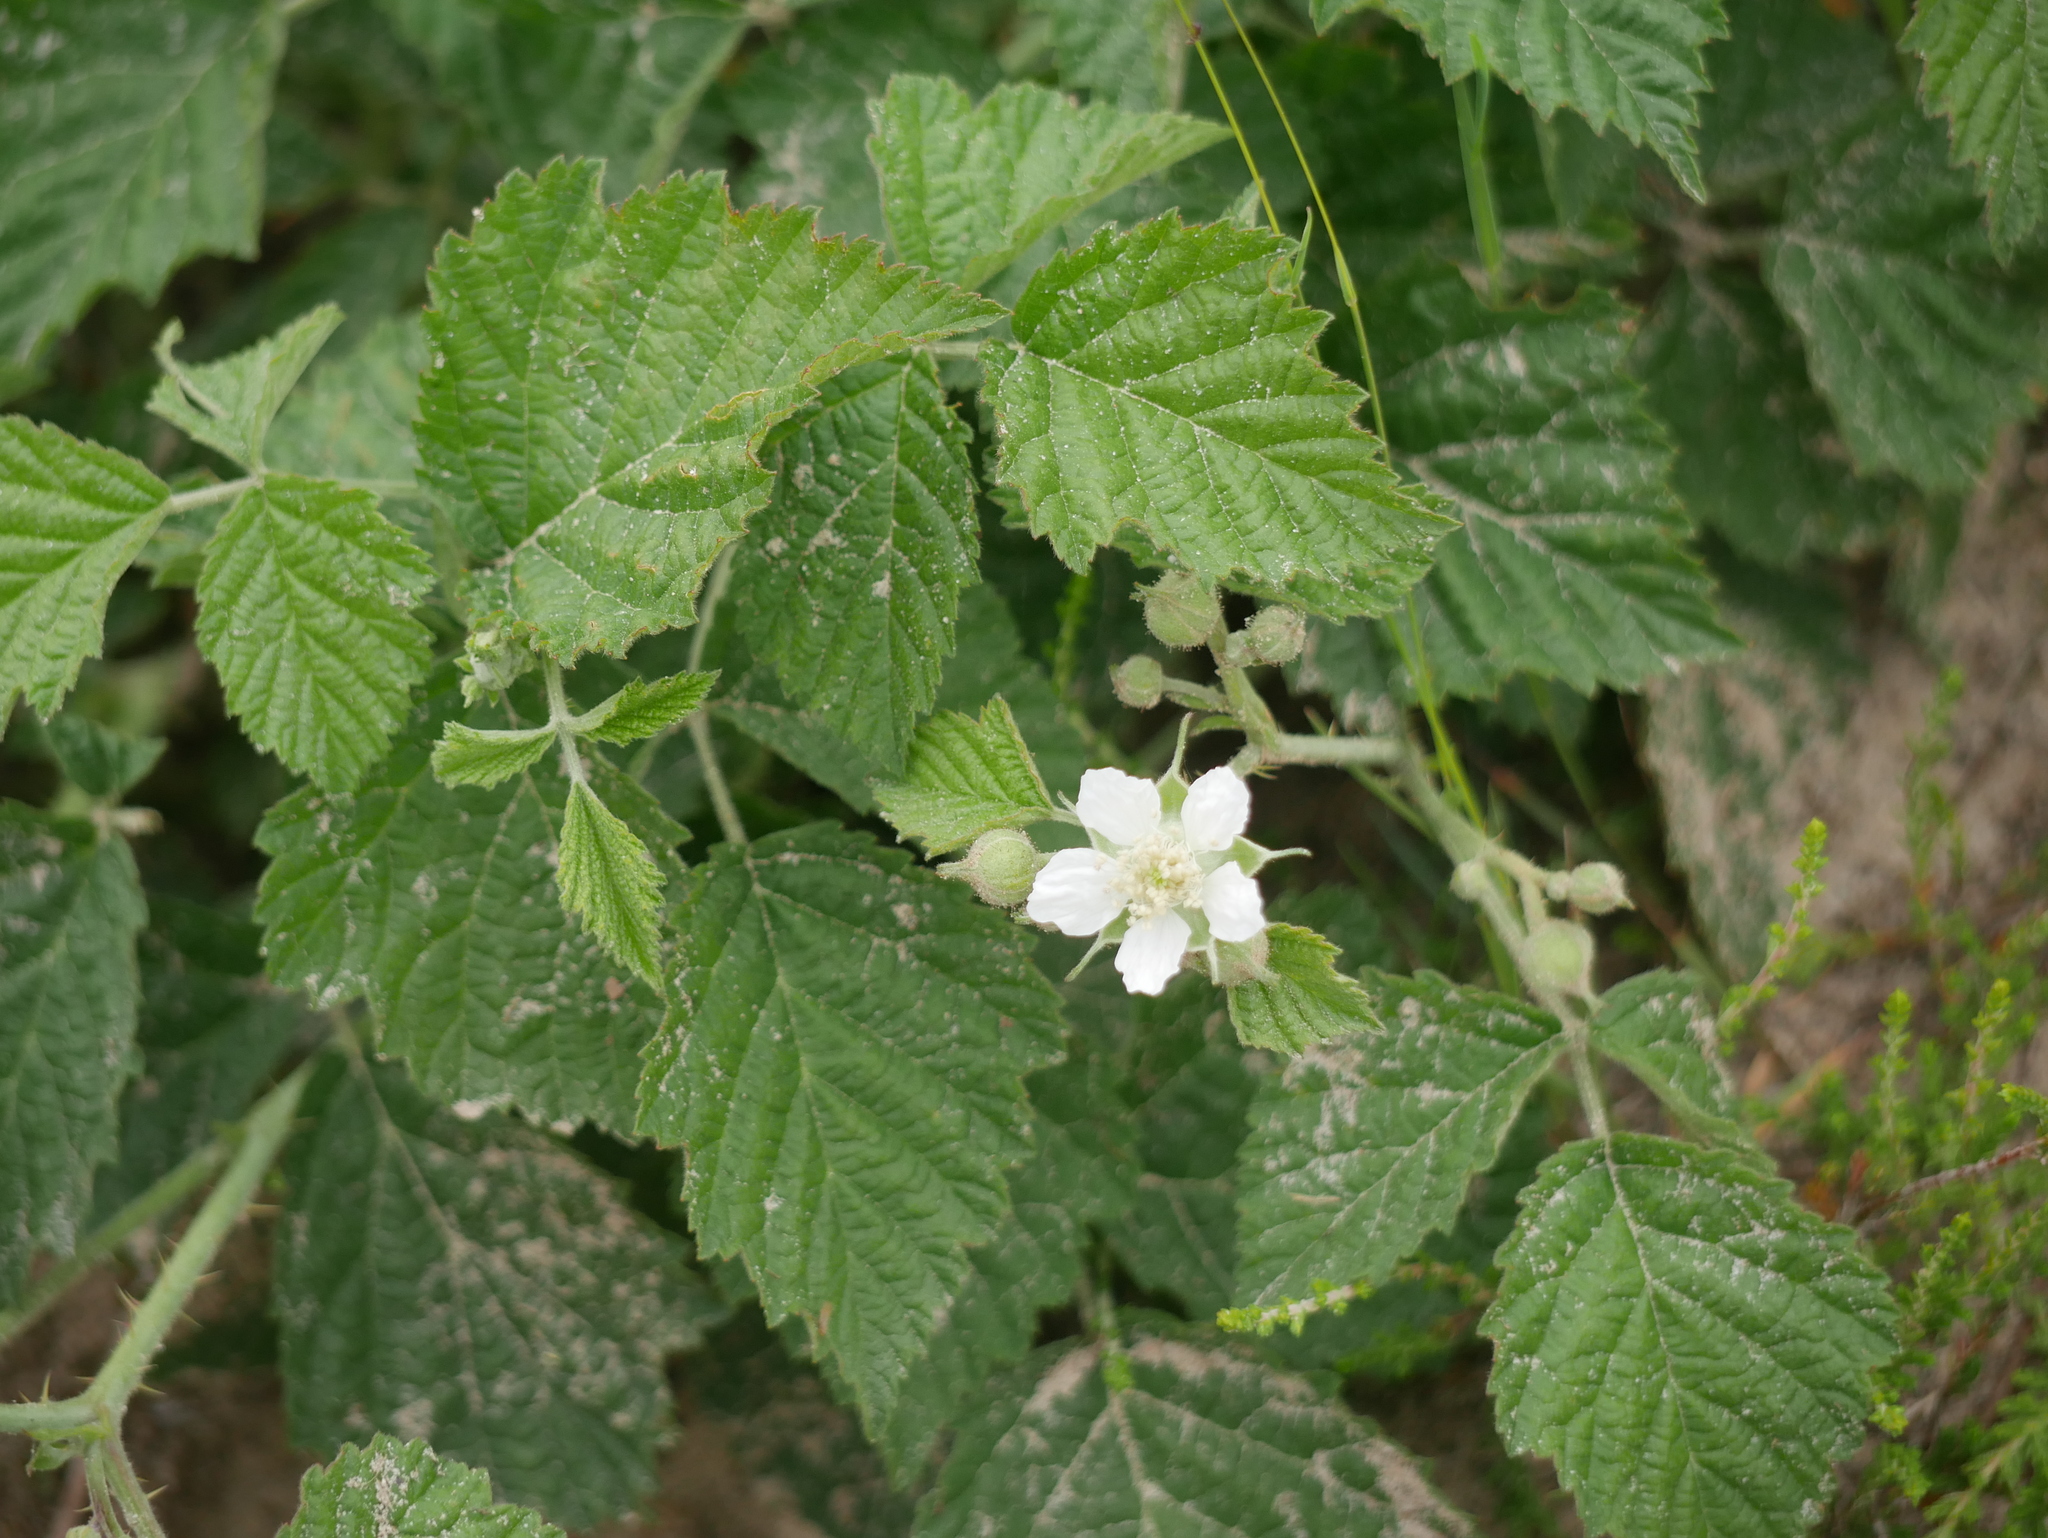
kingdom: Plantae
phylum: Tracheophyta
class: Magnoliopsida
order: Rosales
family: Rosaceae
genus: Rubus
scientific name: Rubus caesius
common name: Dewberry
